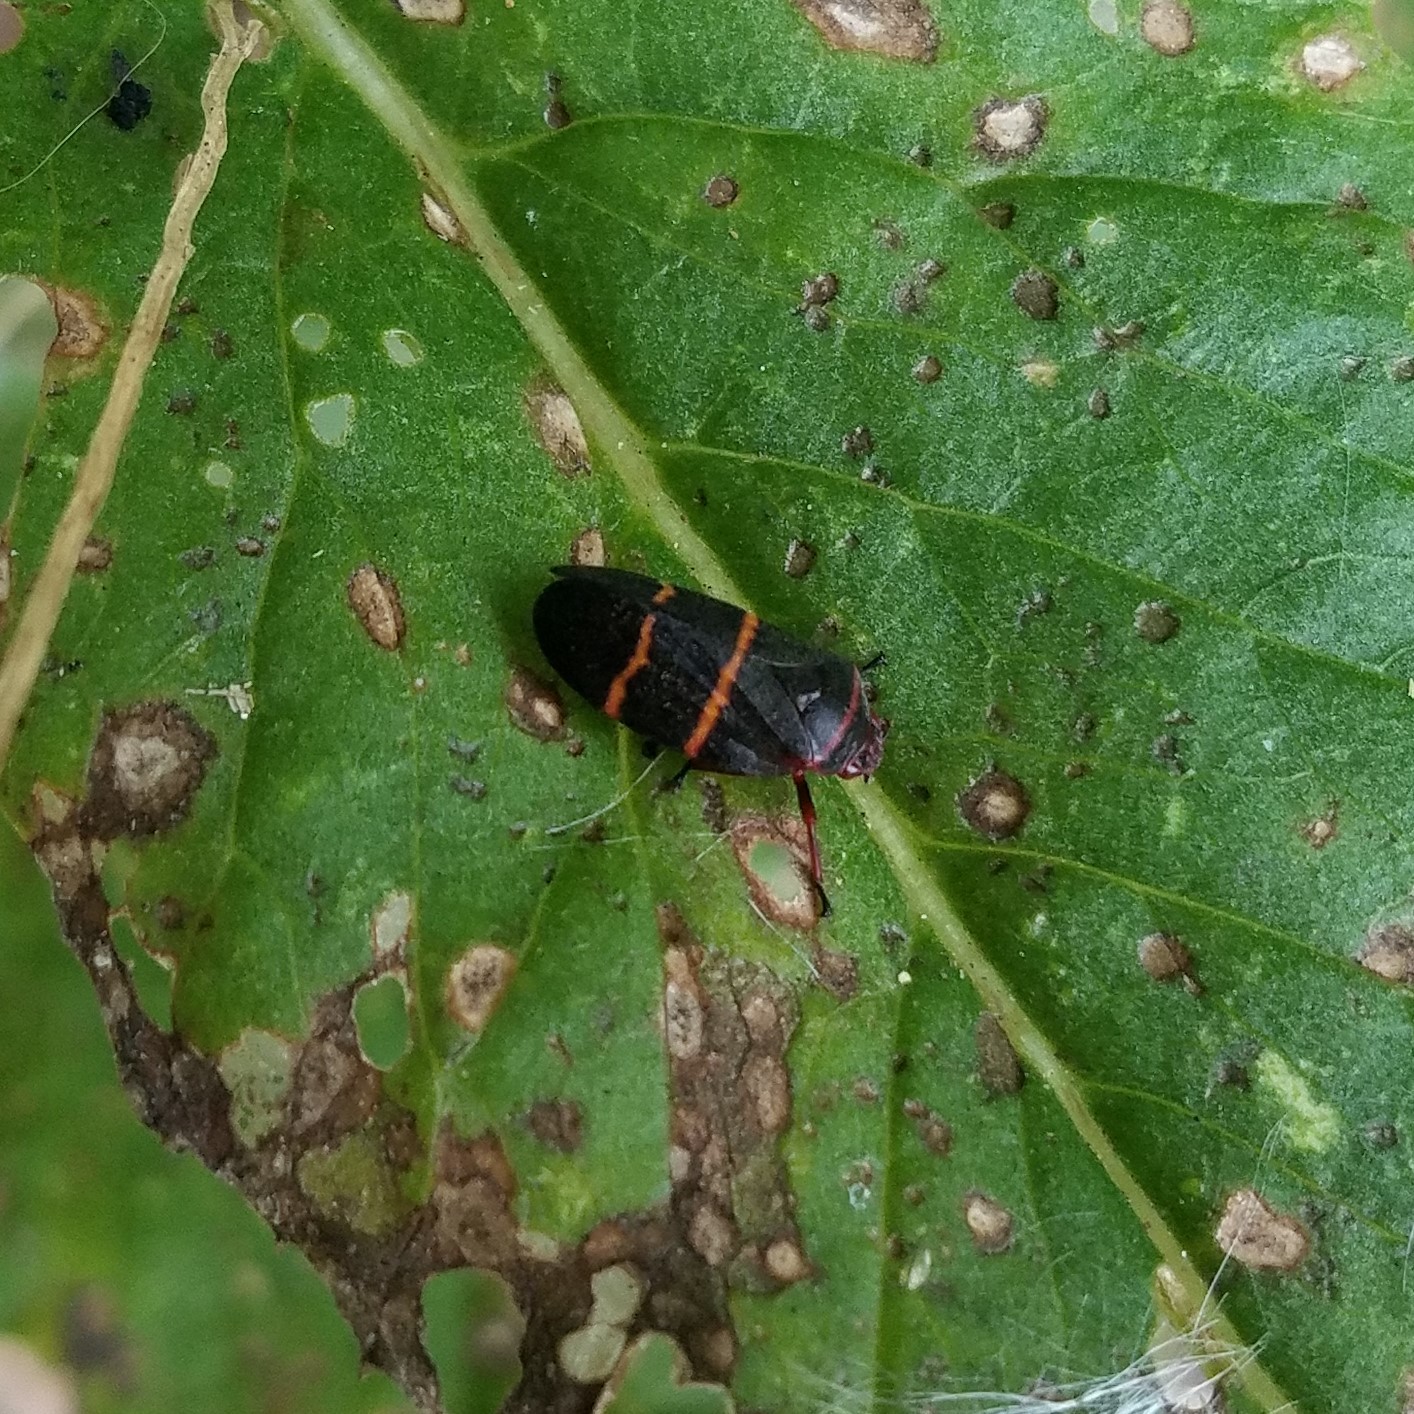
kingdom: Animalia
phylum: Arthropoda
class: Insecta
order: Hemiptera
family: Cercopidae
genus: Prosapia
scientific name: Prosapia bicincta
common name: Twolined spittlebug
